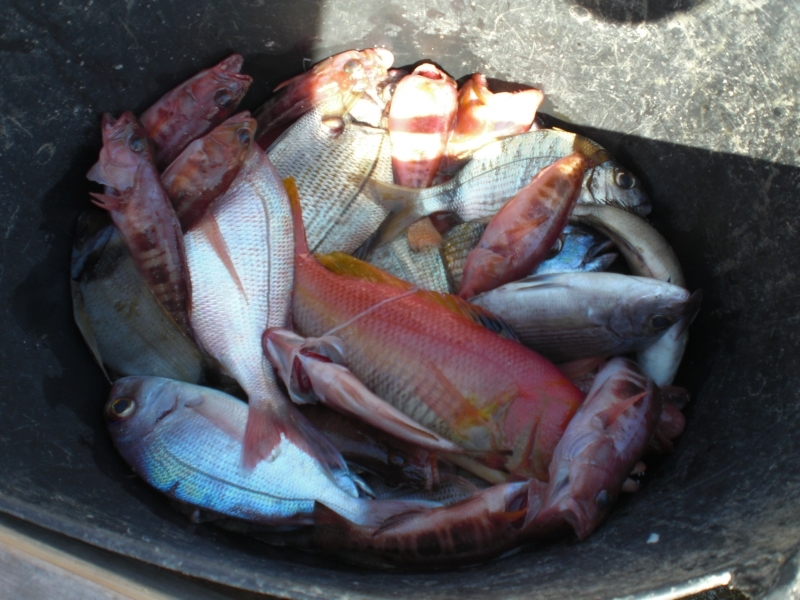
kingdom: Animalia
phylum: Chordata
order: Perciformes
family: Serranidae
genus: Serranus
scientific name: Serranus atricauda
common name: Blacktail comber
